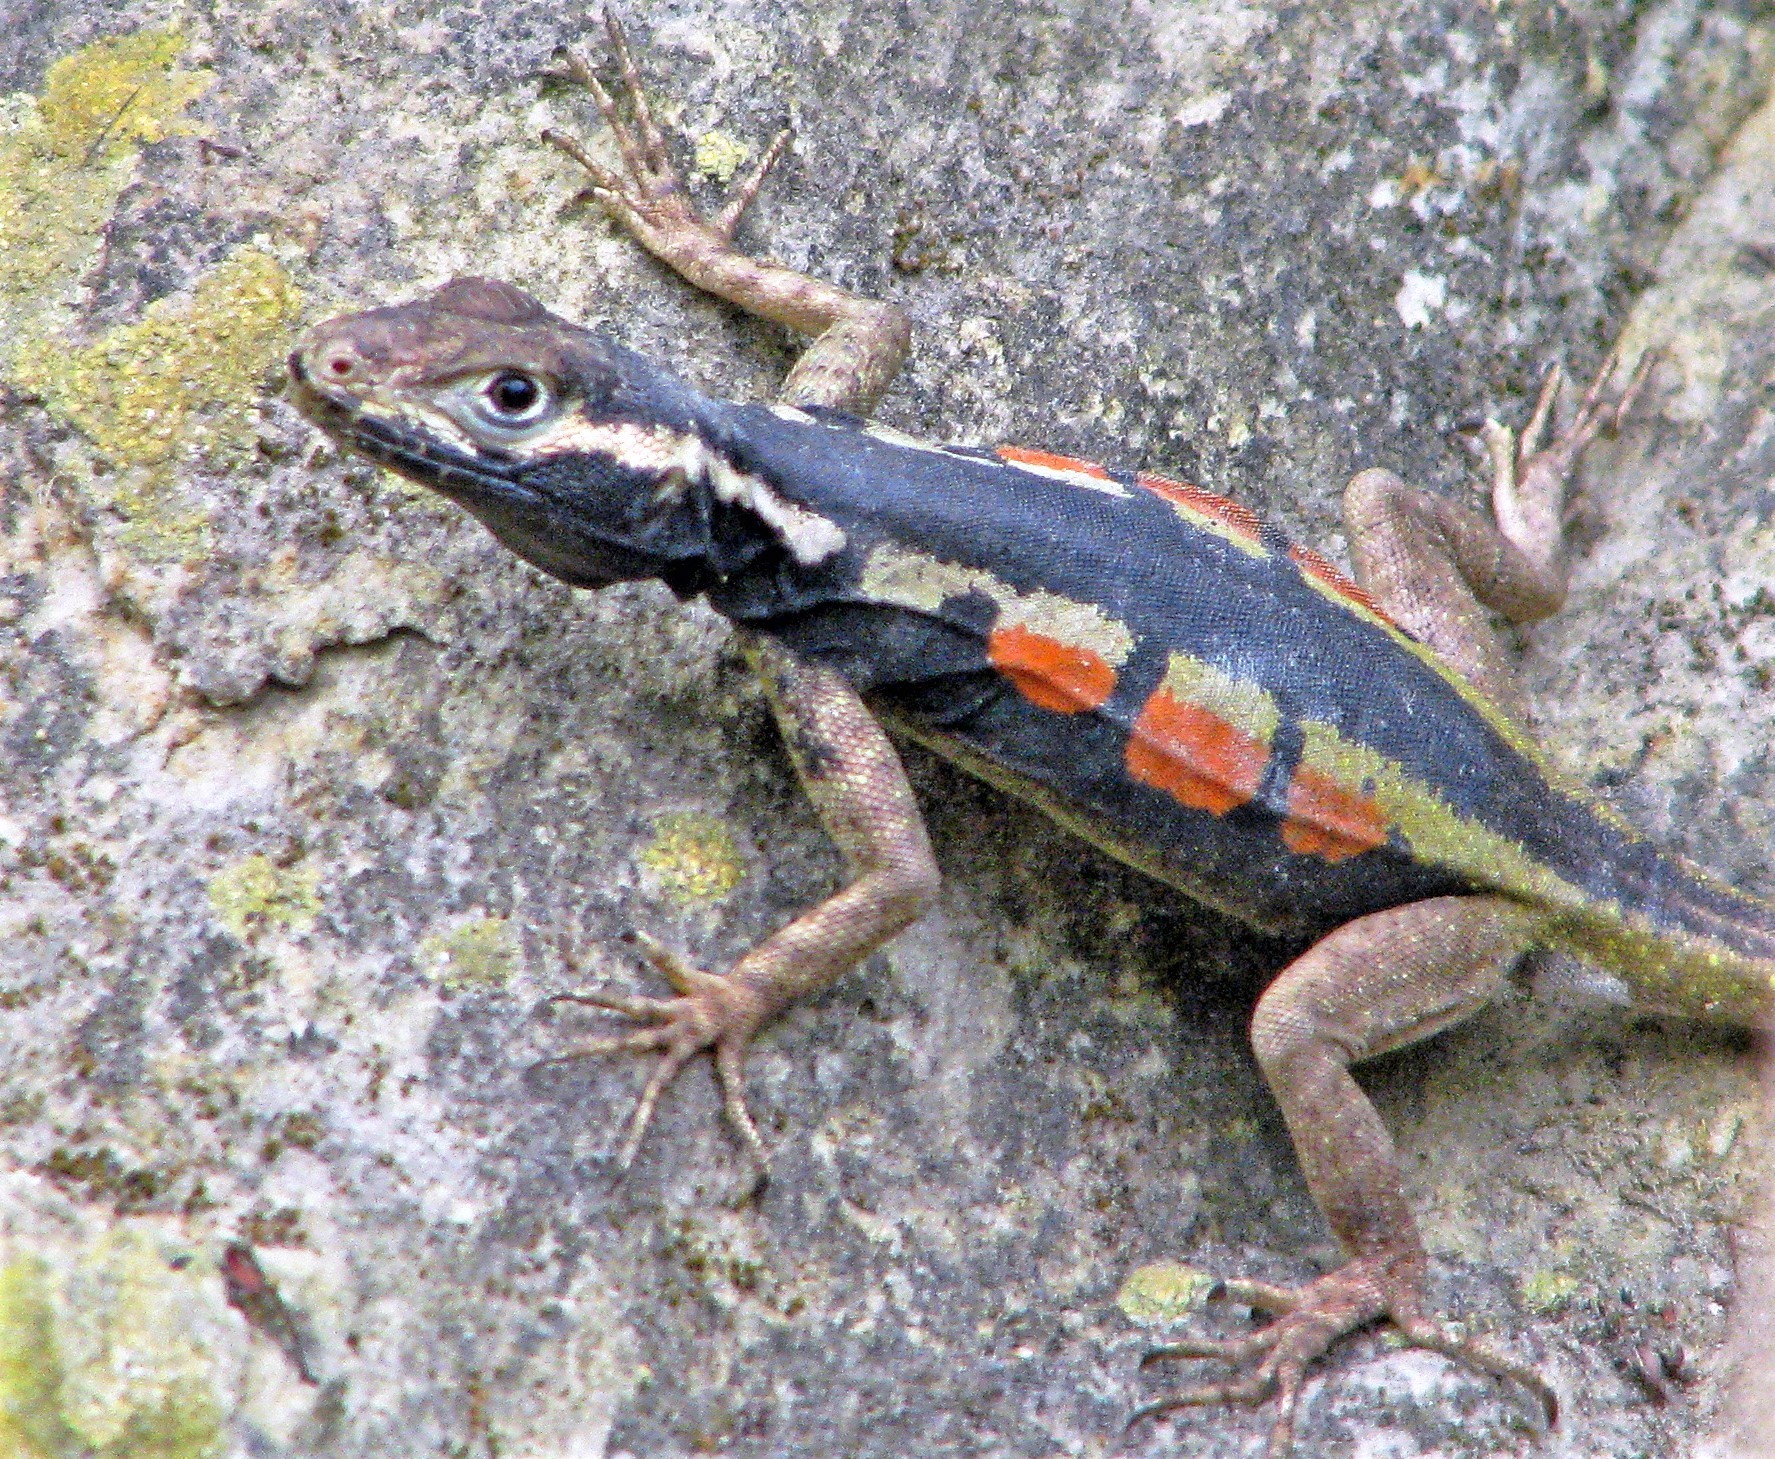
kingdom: Animalia
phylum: Chordata
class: Squamata
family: Tropiduridae
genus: Tropidurus
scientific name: Tropidurus melanopleurus
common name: Black lava lizard
